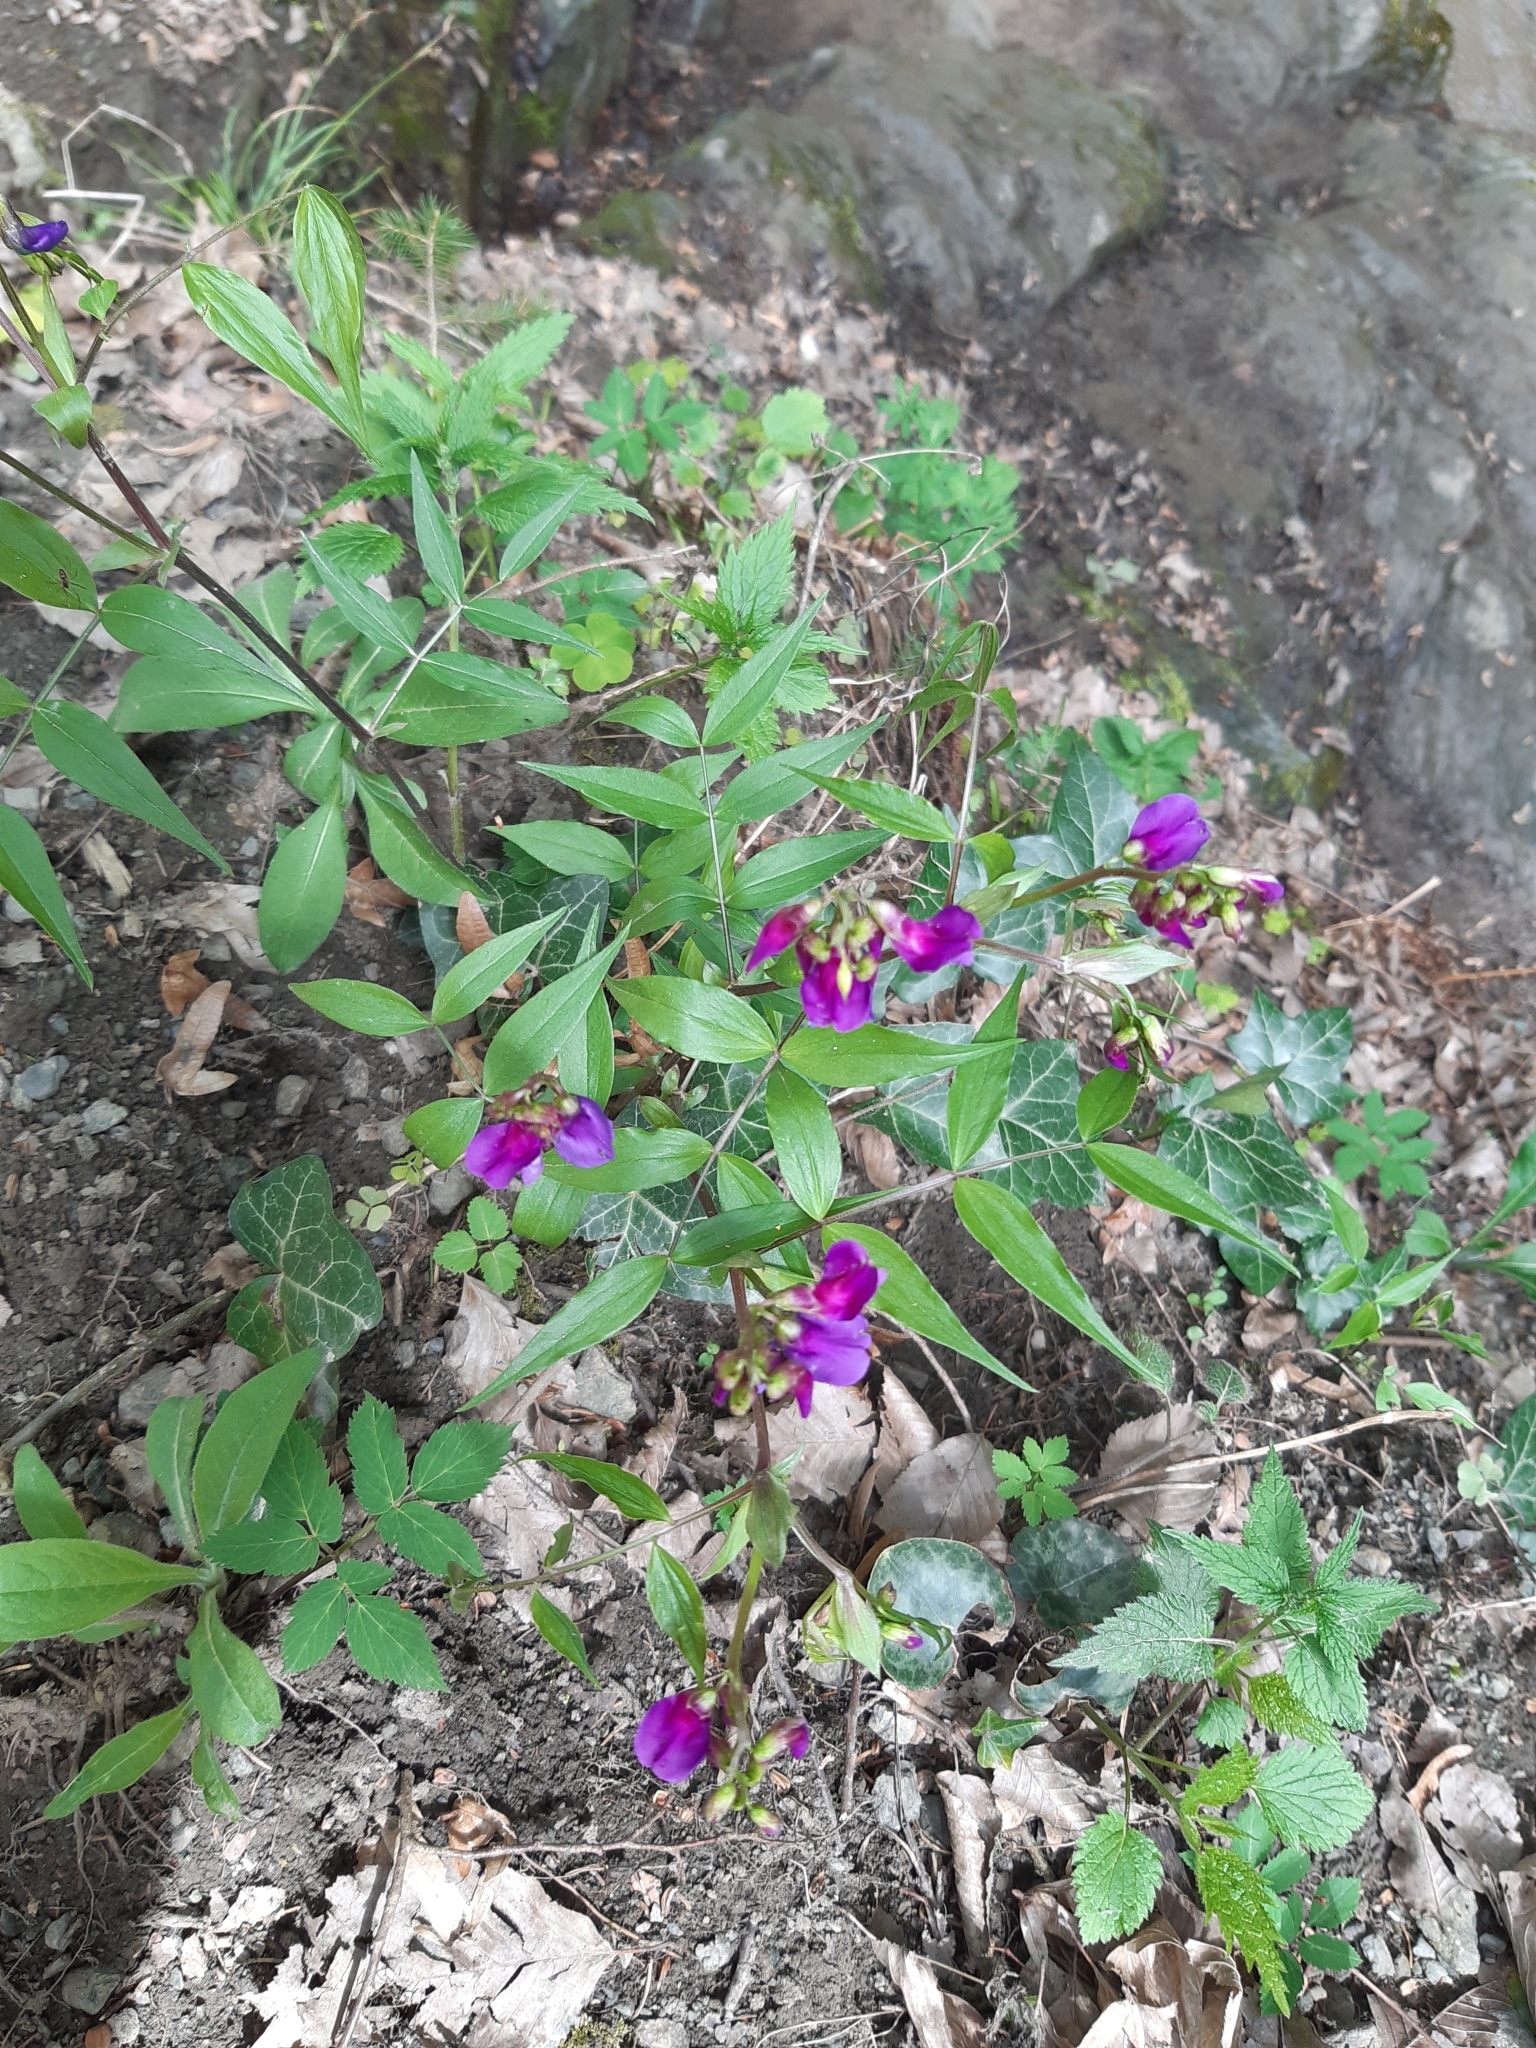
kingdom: Plantae
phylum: Tracheophyta
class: Magnoliopsida
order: Fabales
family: Fabaceae
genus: Lathyrus
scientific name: Lathyrus vernus
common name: Spring pea
